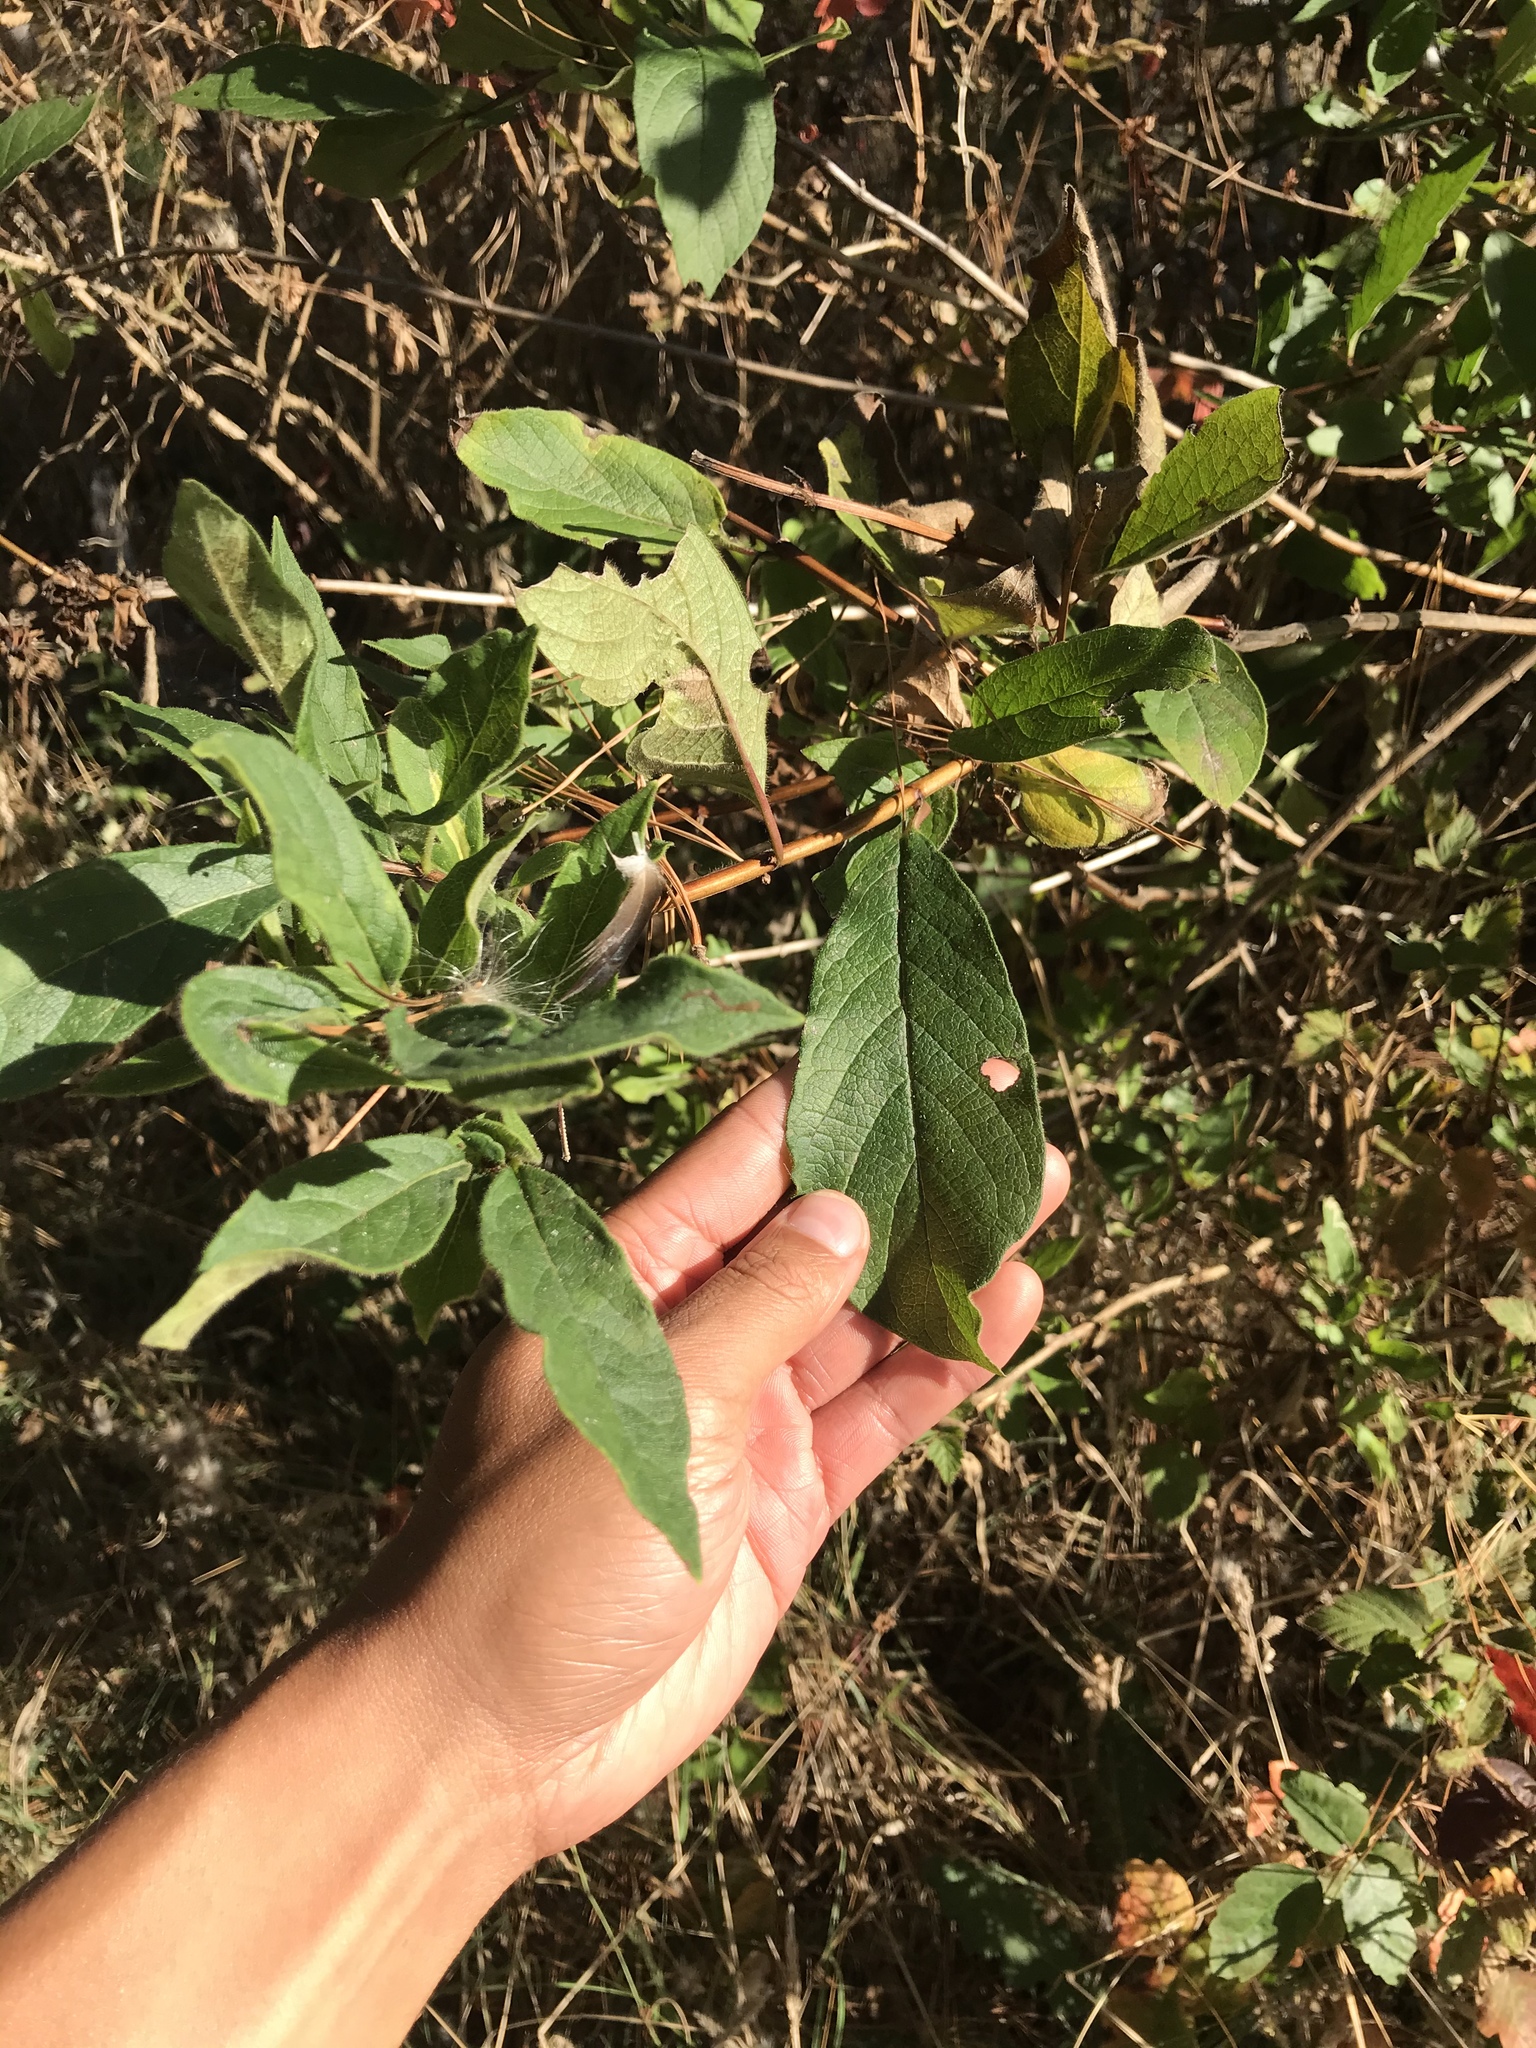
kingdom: Plantae
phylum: Tracheophyta
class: Magnoliopsida
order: Dipsacales
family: Caprifoliaceae
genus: Lonicera
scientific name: Lonicera involucrata
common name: Californian honeysuckle
